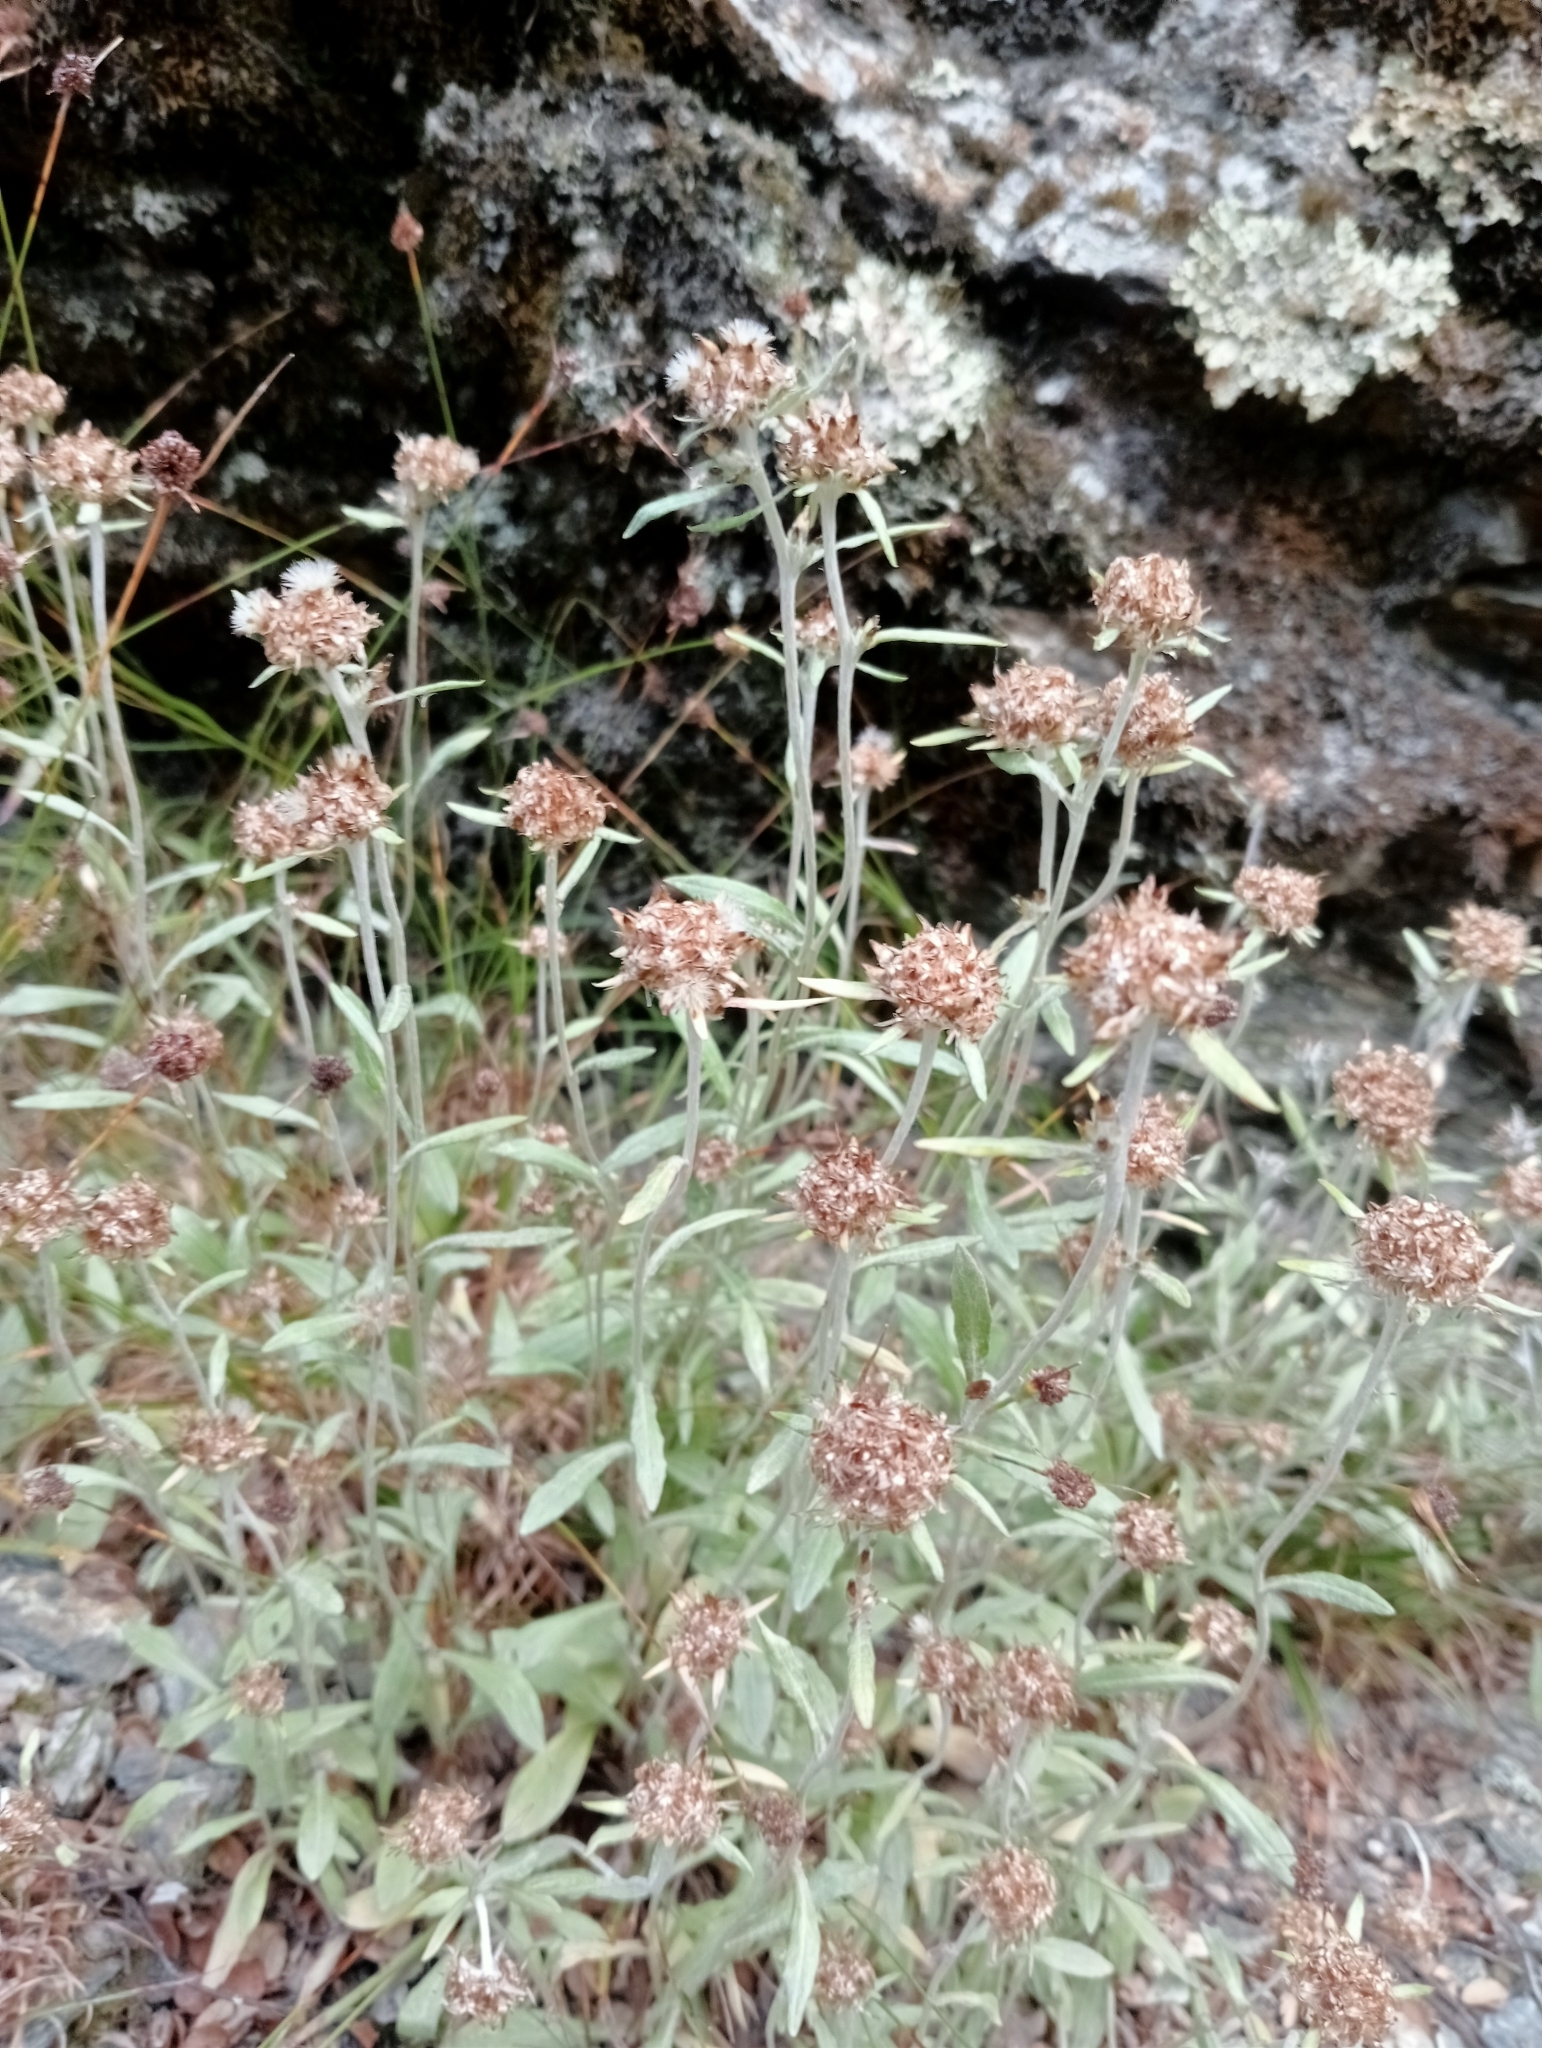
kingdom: Plantae
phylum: Tracheophyta
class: Magnoliopsida
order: Asterales
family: Asteraceae
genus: Euchiton
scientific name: Euchiton sphaericus
